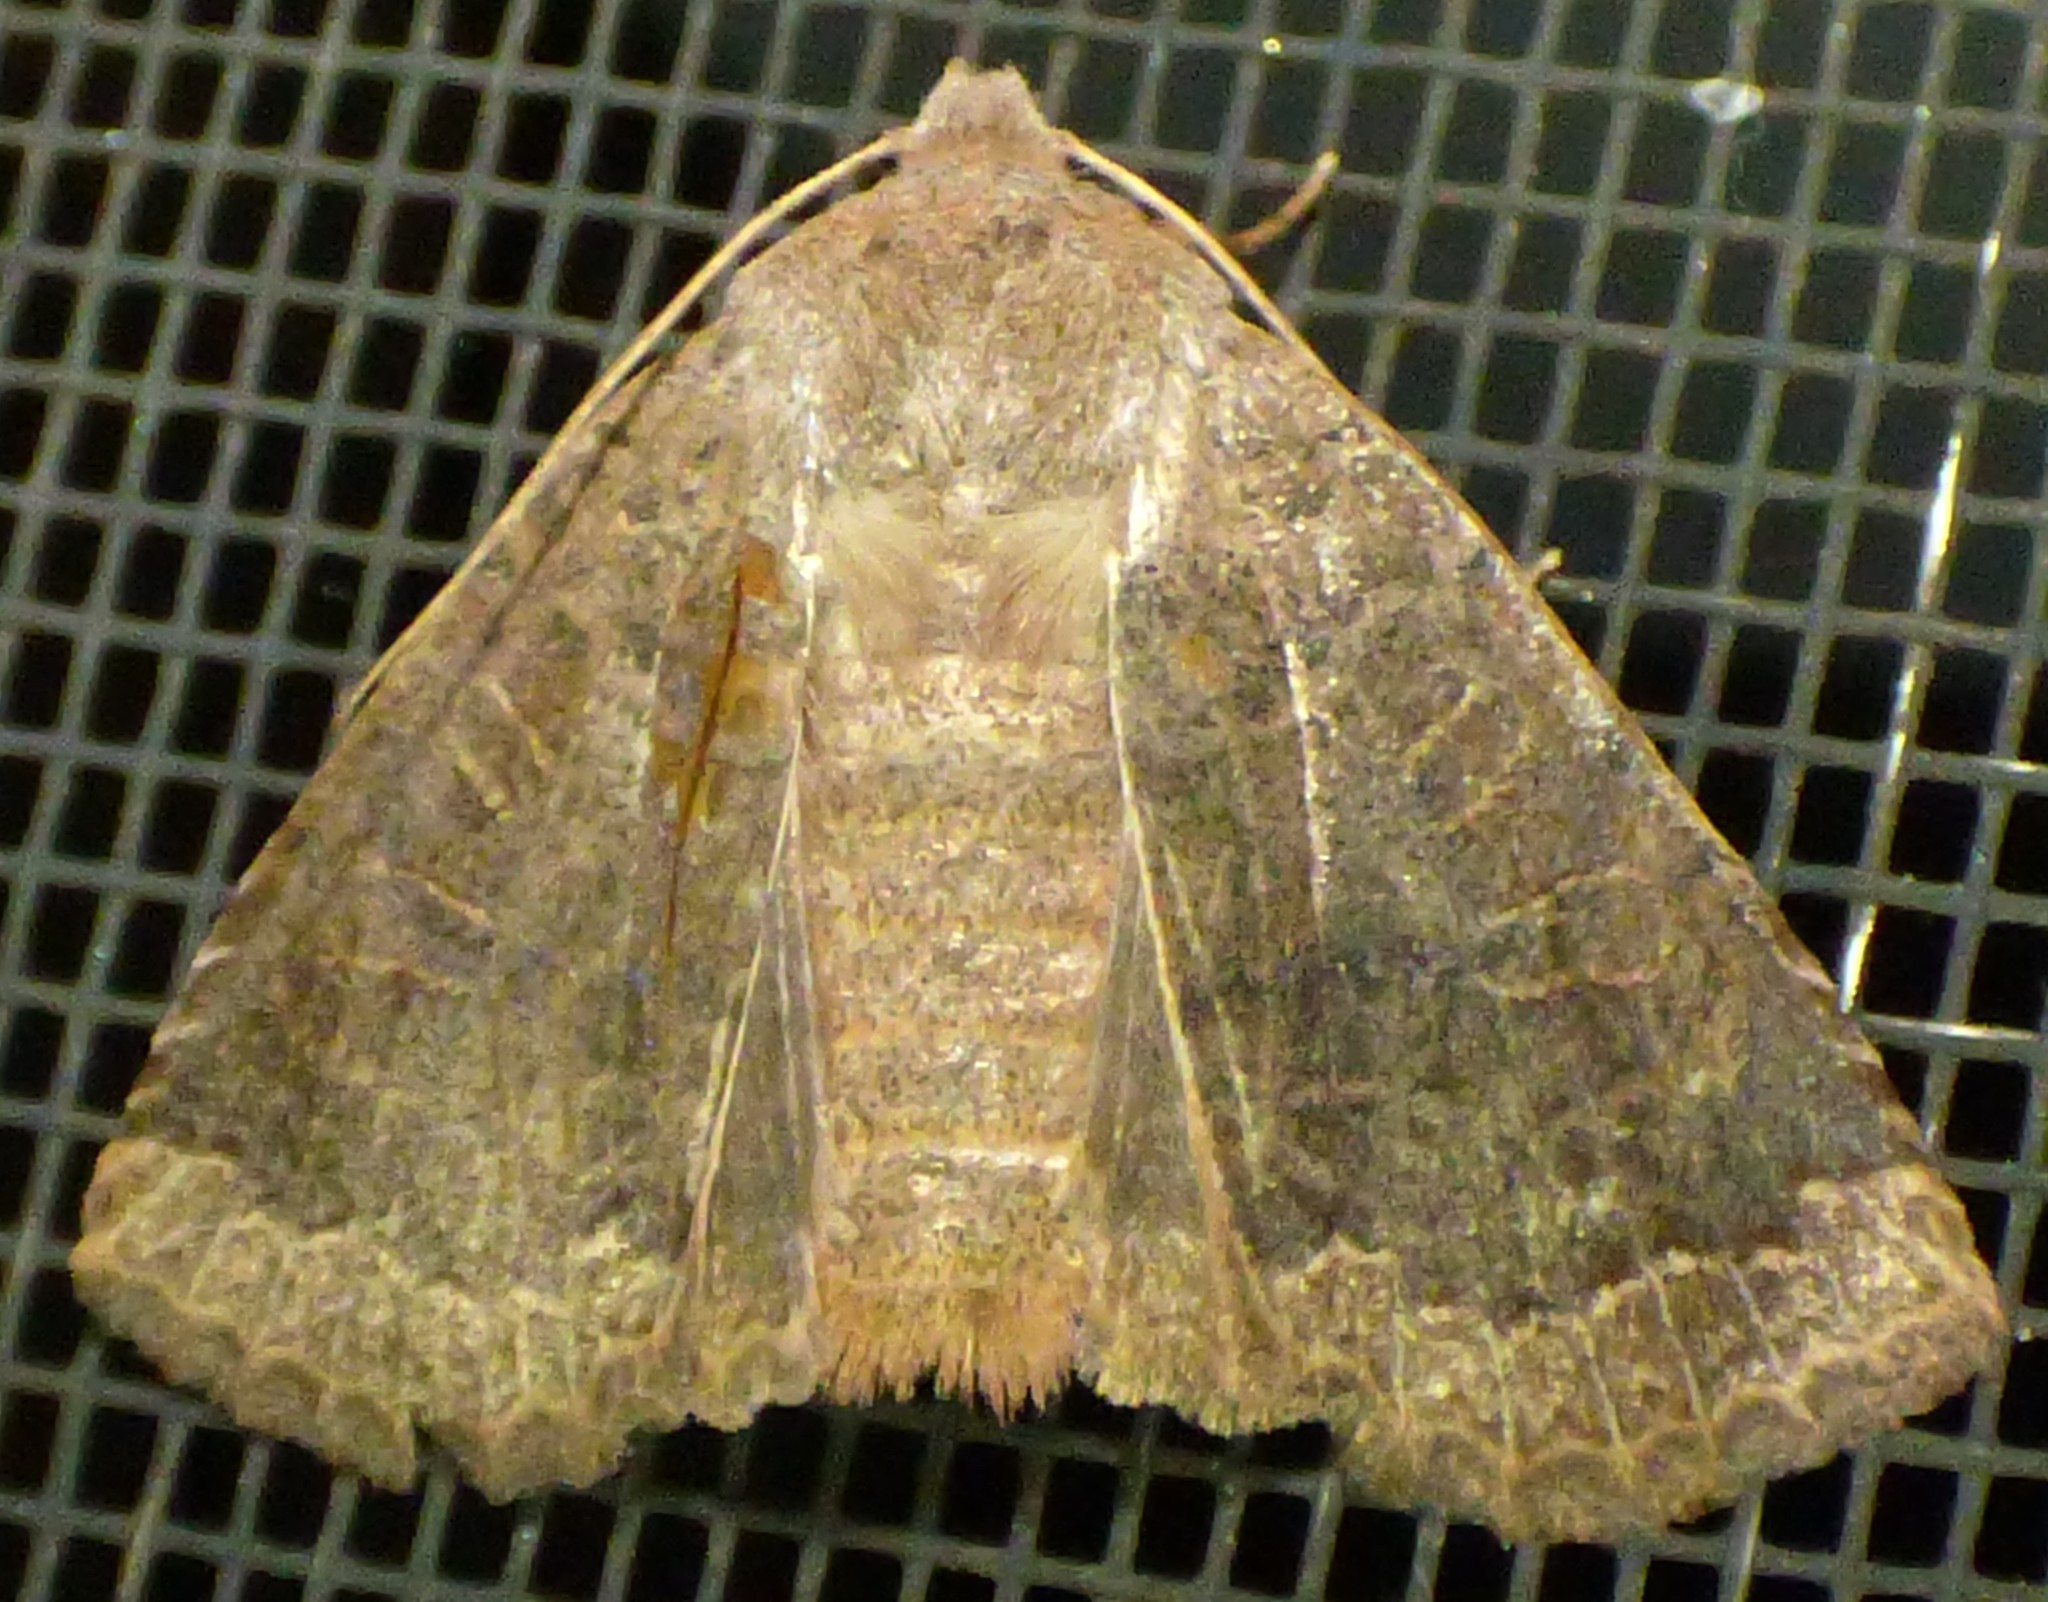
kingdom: Animalia
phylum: Arthropoda
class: Insecta
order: Lepidoptera
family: Noctuidae
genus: Sericaglaea
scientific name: Sericaglaea signata
